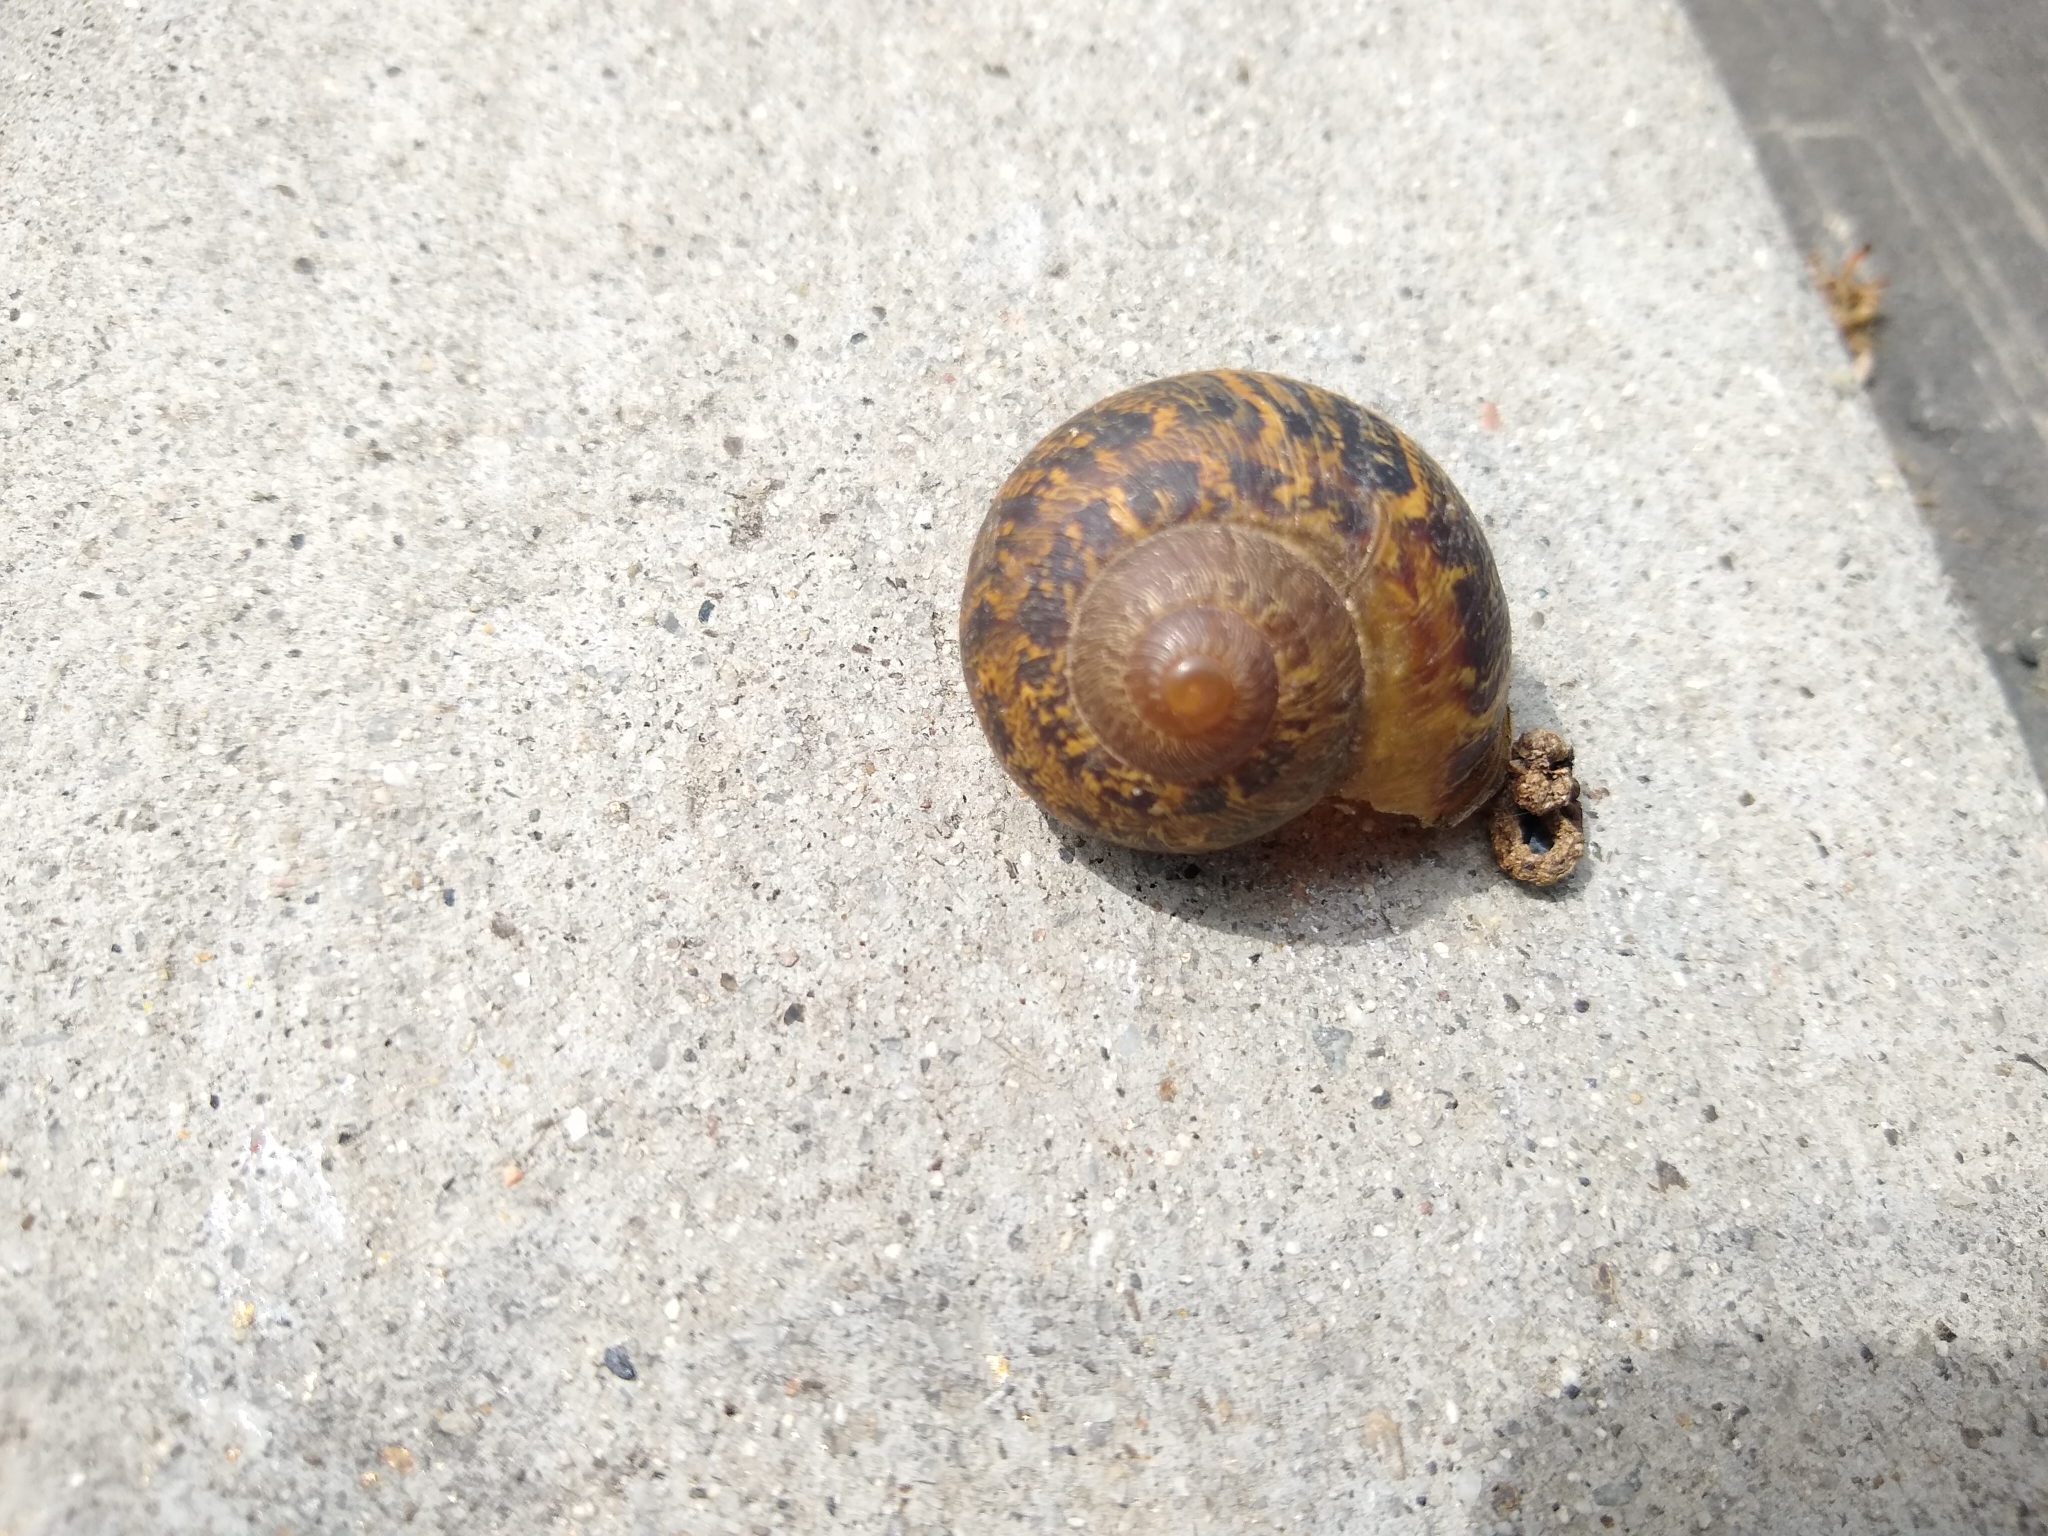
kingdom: Animalia
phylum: Mollusca
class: Gastropoda
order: Stylommatophora
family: Helicidae
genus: Cornu
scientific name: Cornu aspersum
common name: Brown garden snail
